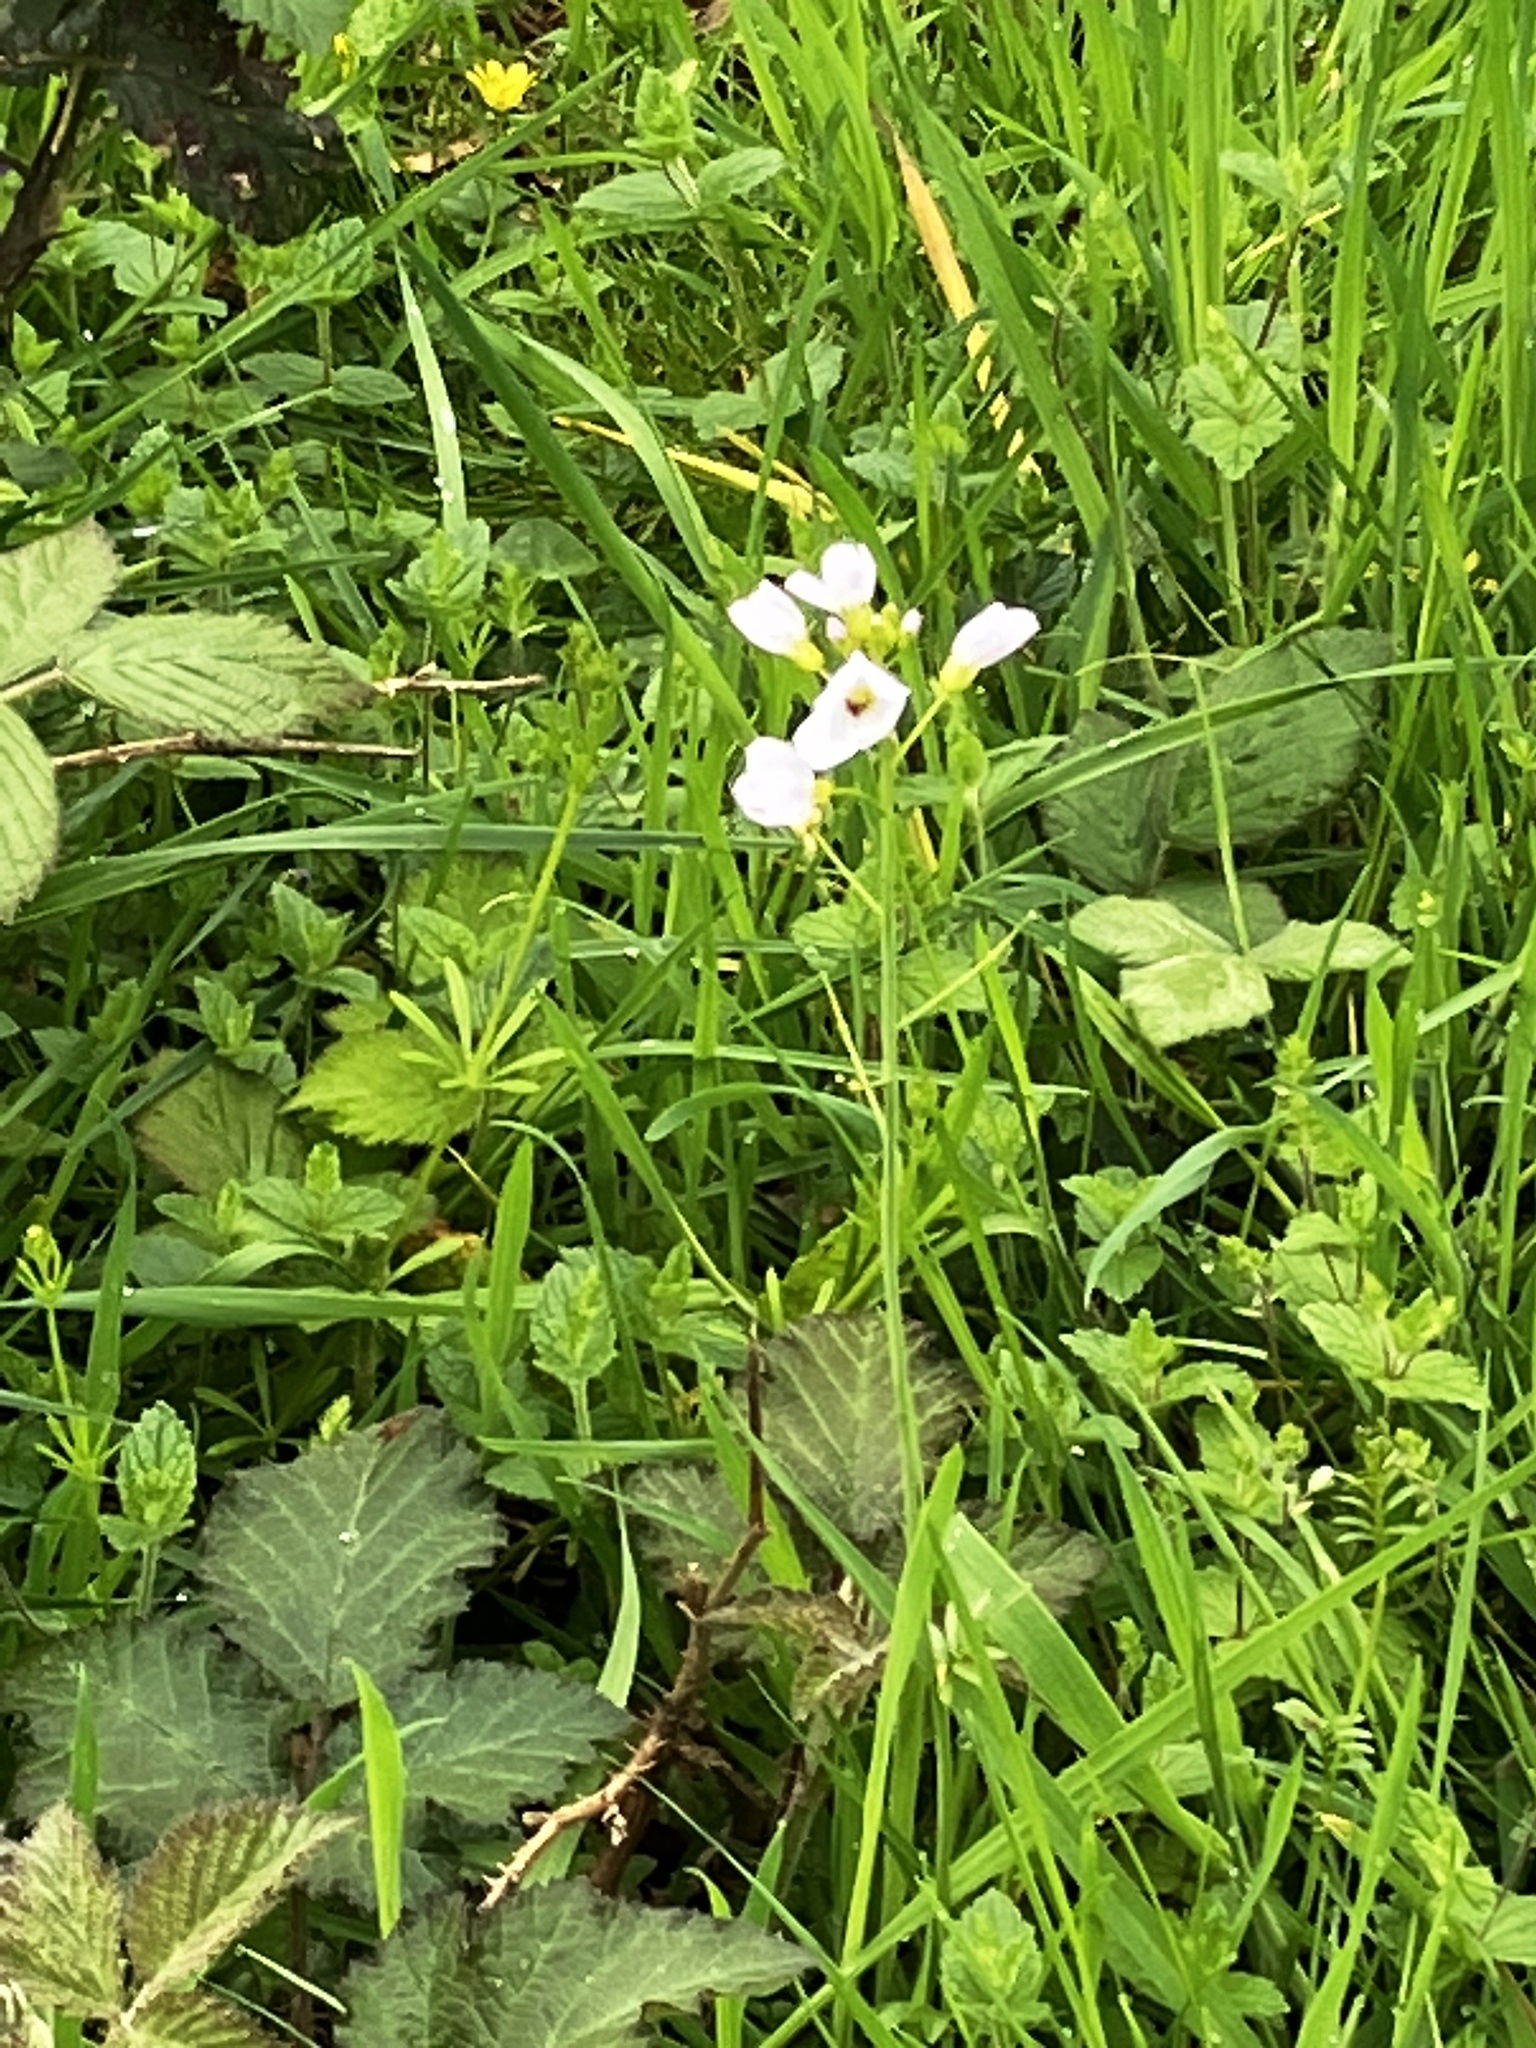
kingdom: Plantae
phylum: Tracheophyta
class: Magnoliopsida
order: Brassicales
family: Brassicaceae
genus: Cardamine
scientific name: Cardamine pratensis
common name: Cuckoo flower
